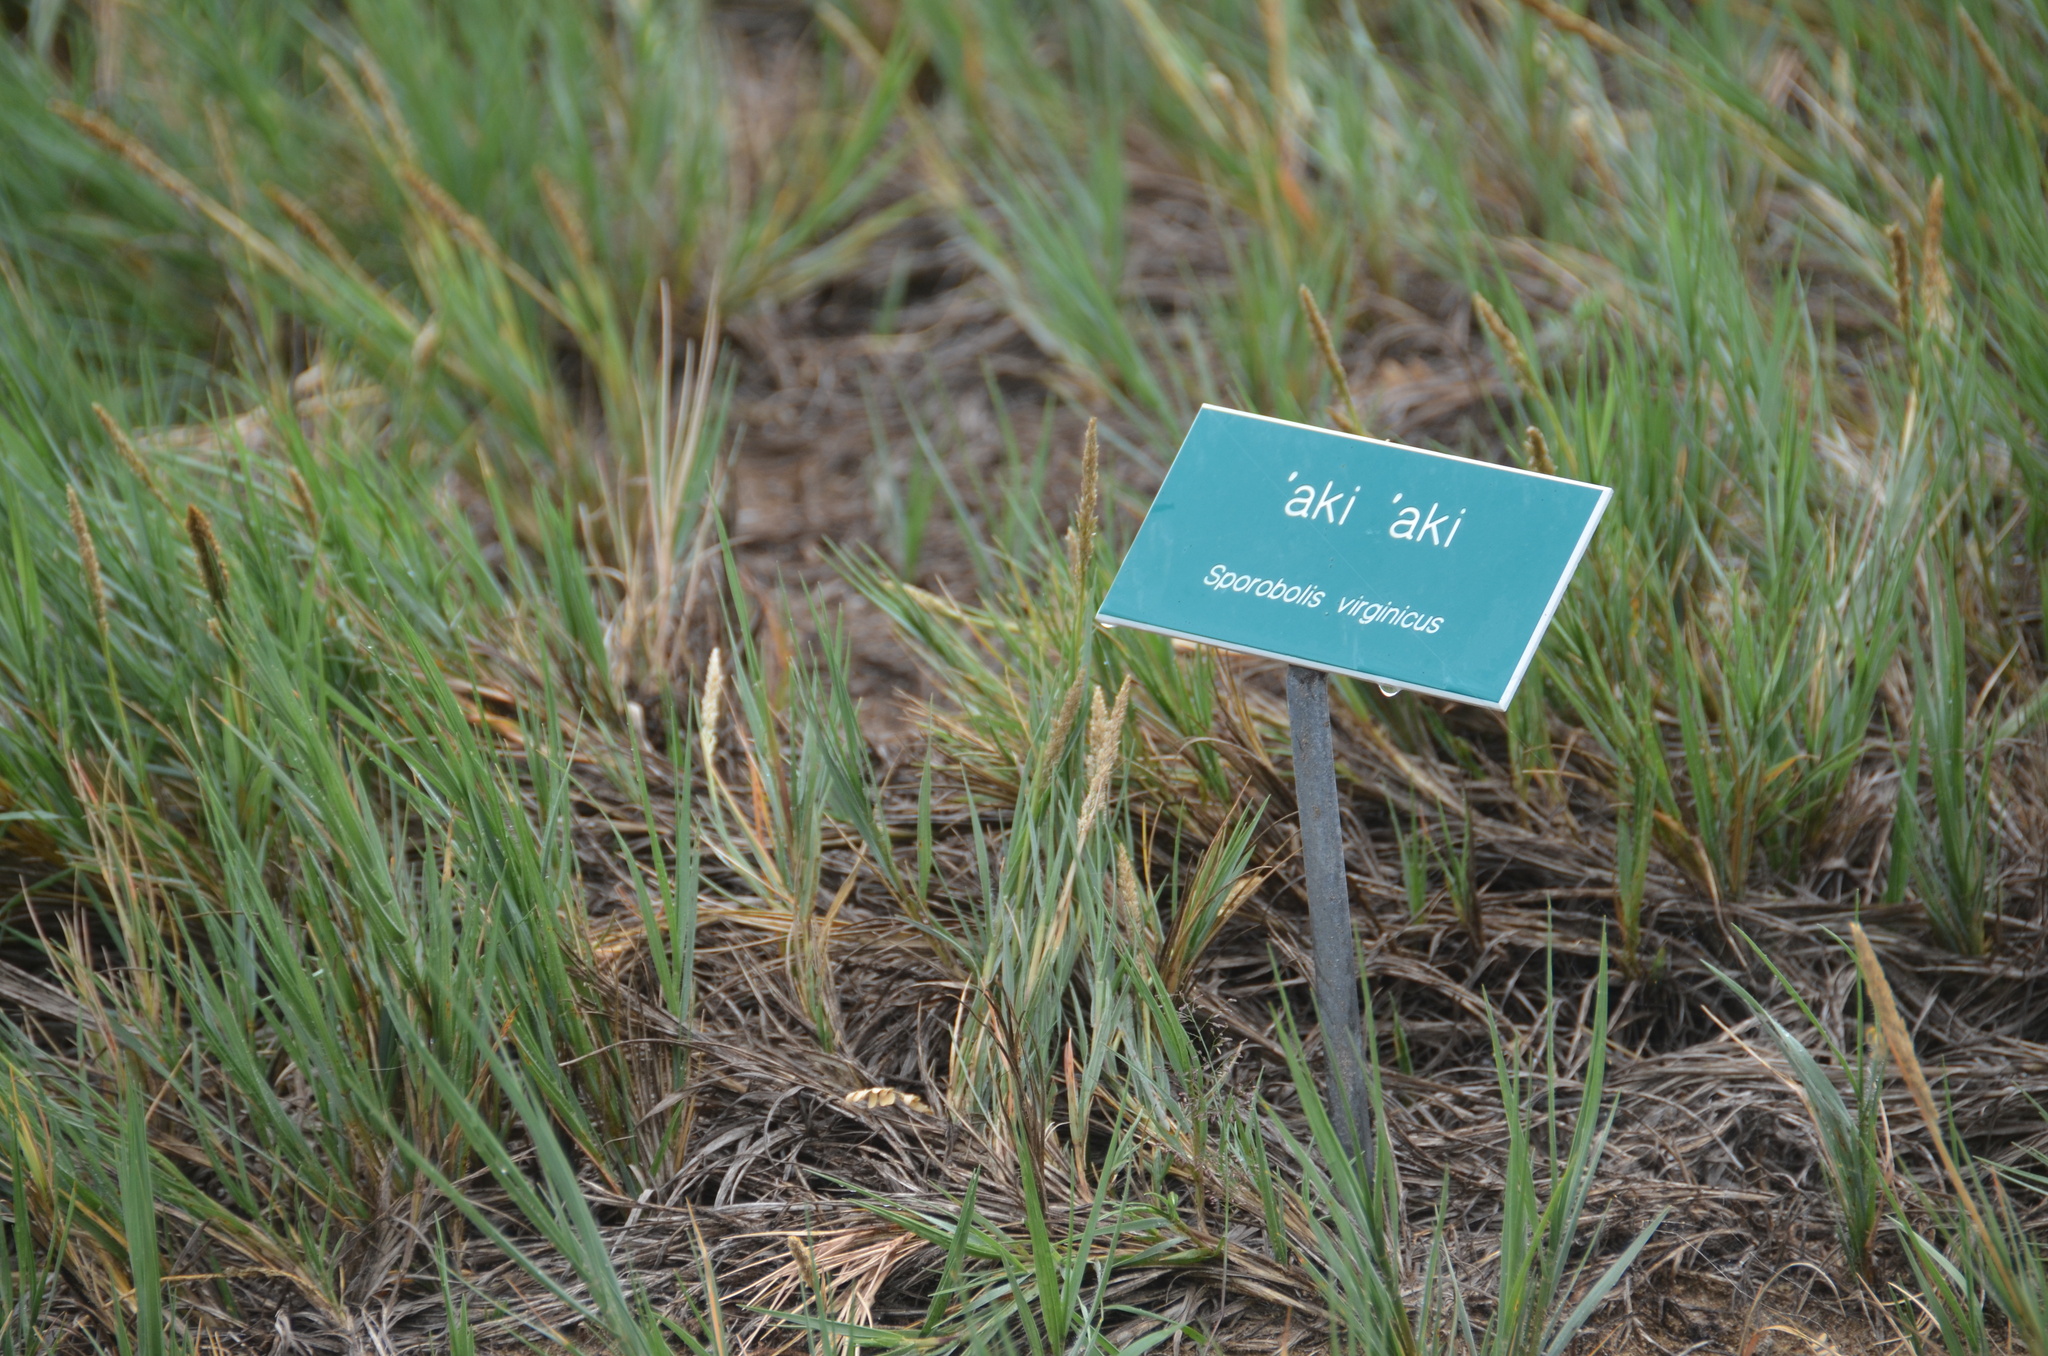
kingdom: Plantae
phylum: Tracheophyta
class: Liliopsida
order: Poales
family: Poaceae
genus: Sporobolus
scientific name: Sporobolus virginicus
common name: Beach dropseed
